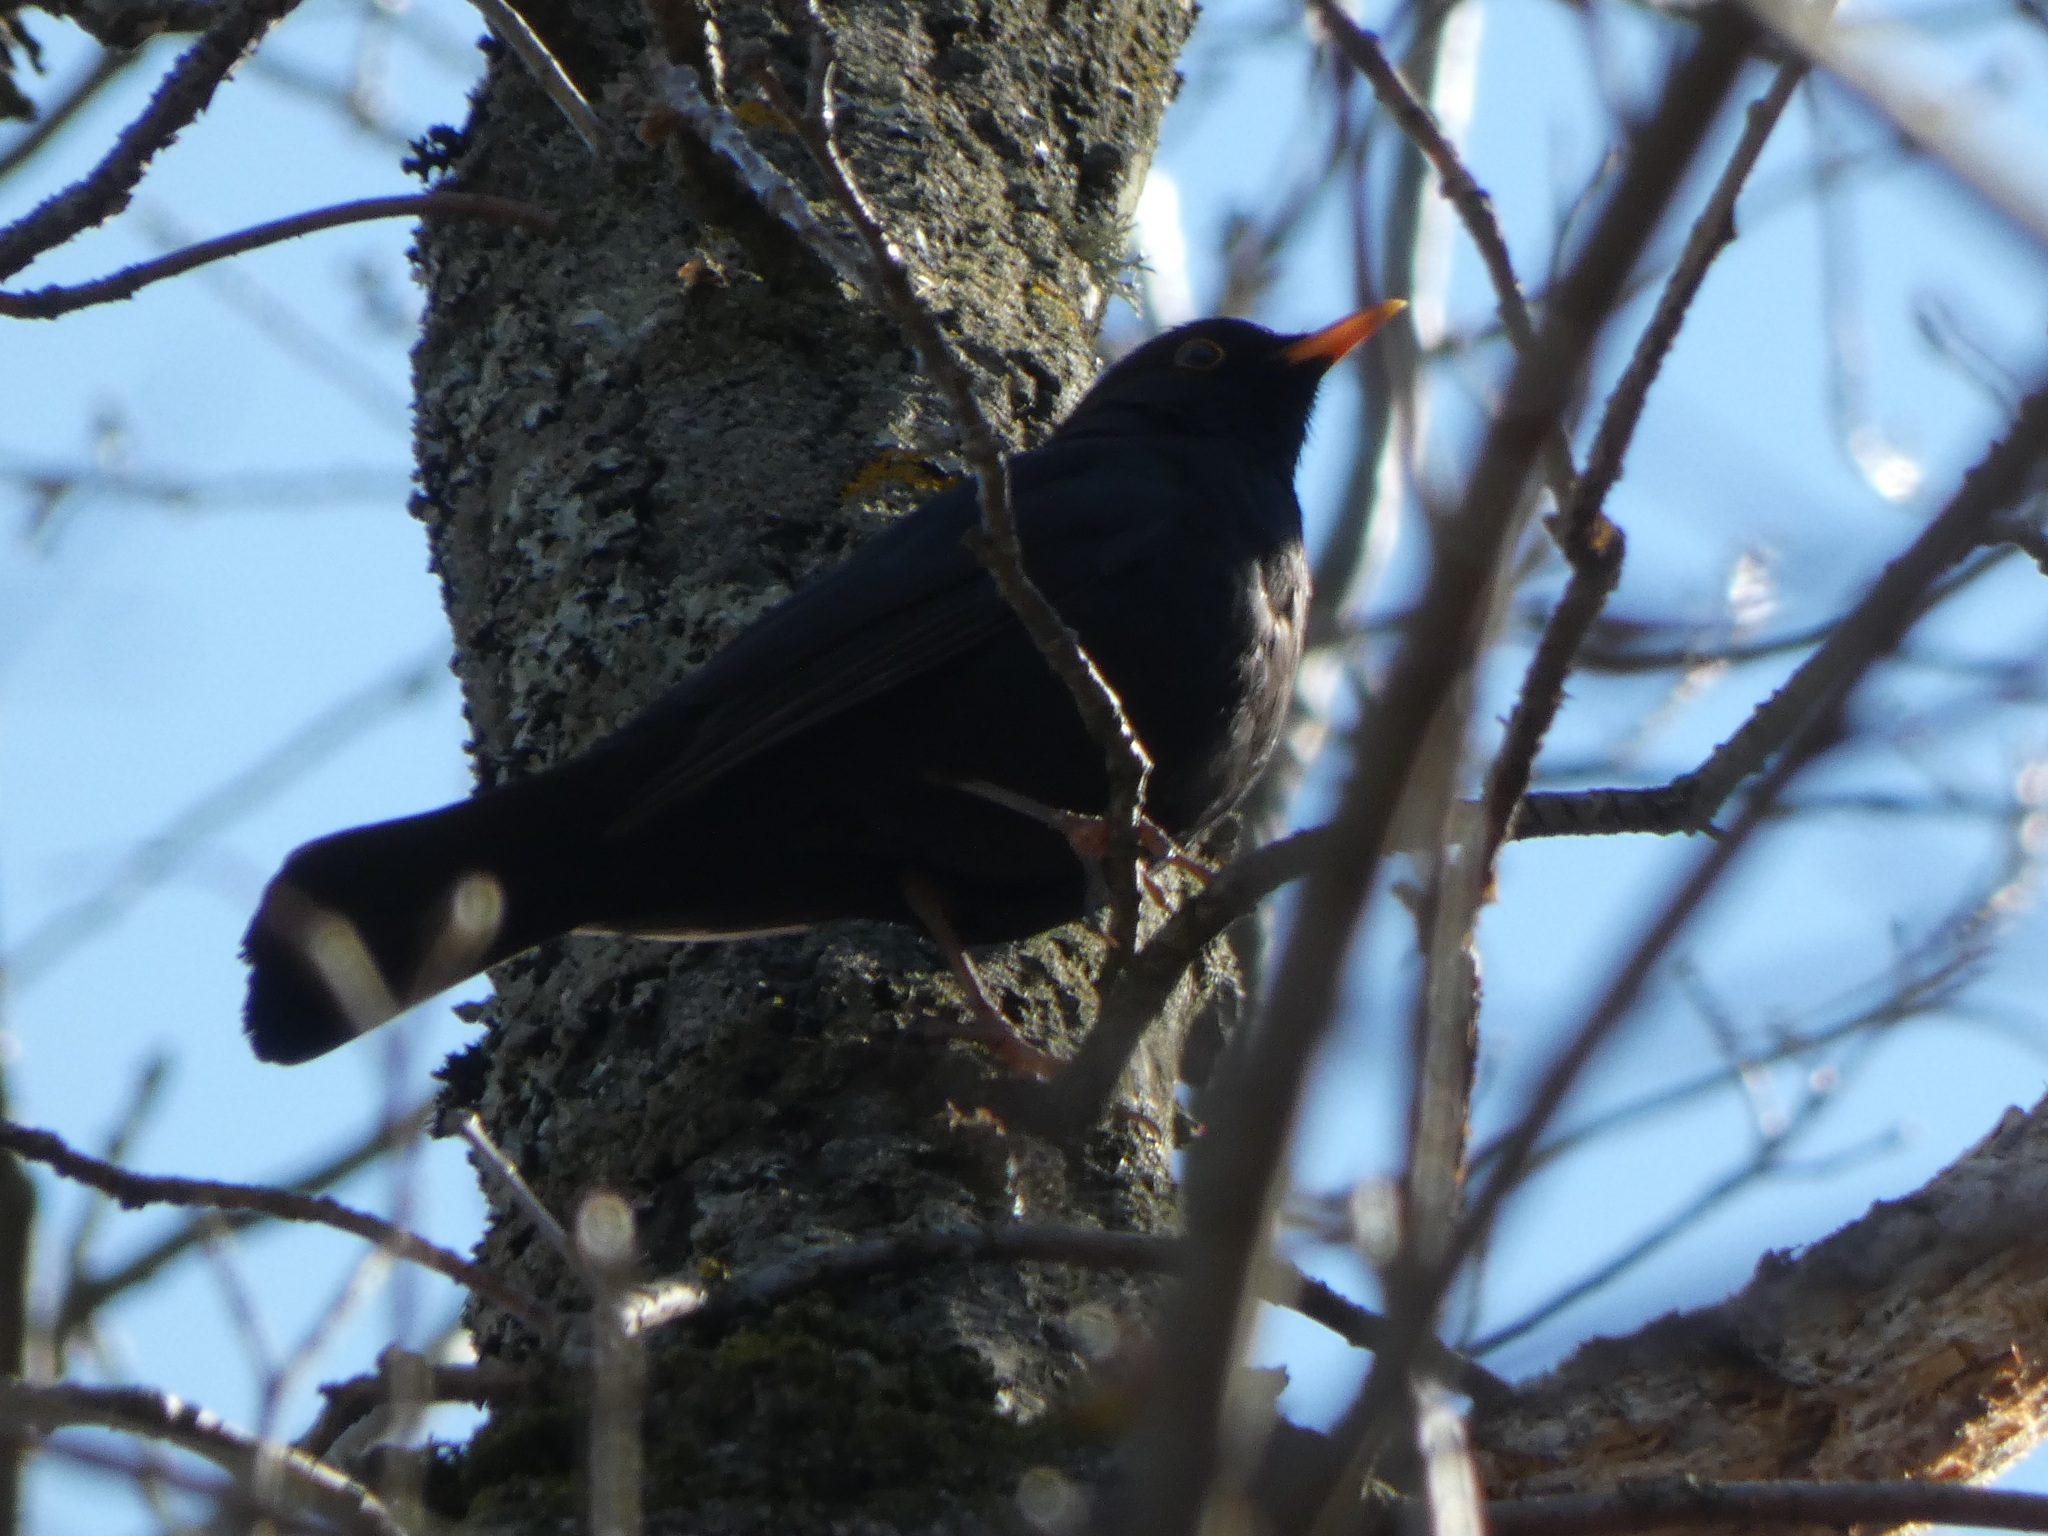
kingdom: Animalia
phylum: Chordata
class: Aves
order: Passeriformes
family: Turdidae
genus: Turdus
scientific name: Turdus merula
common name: Common blackbird
